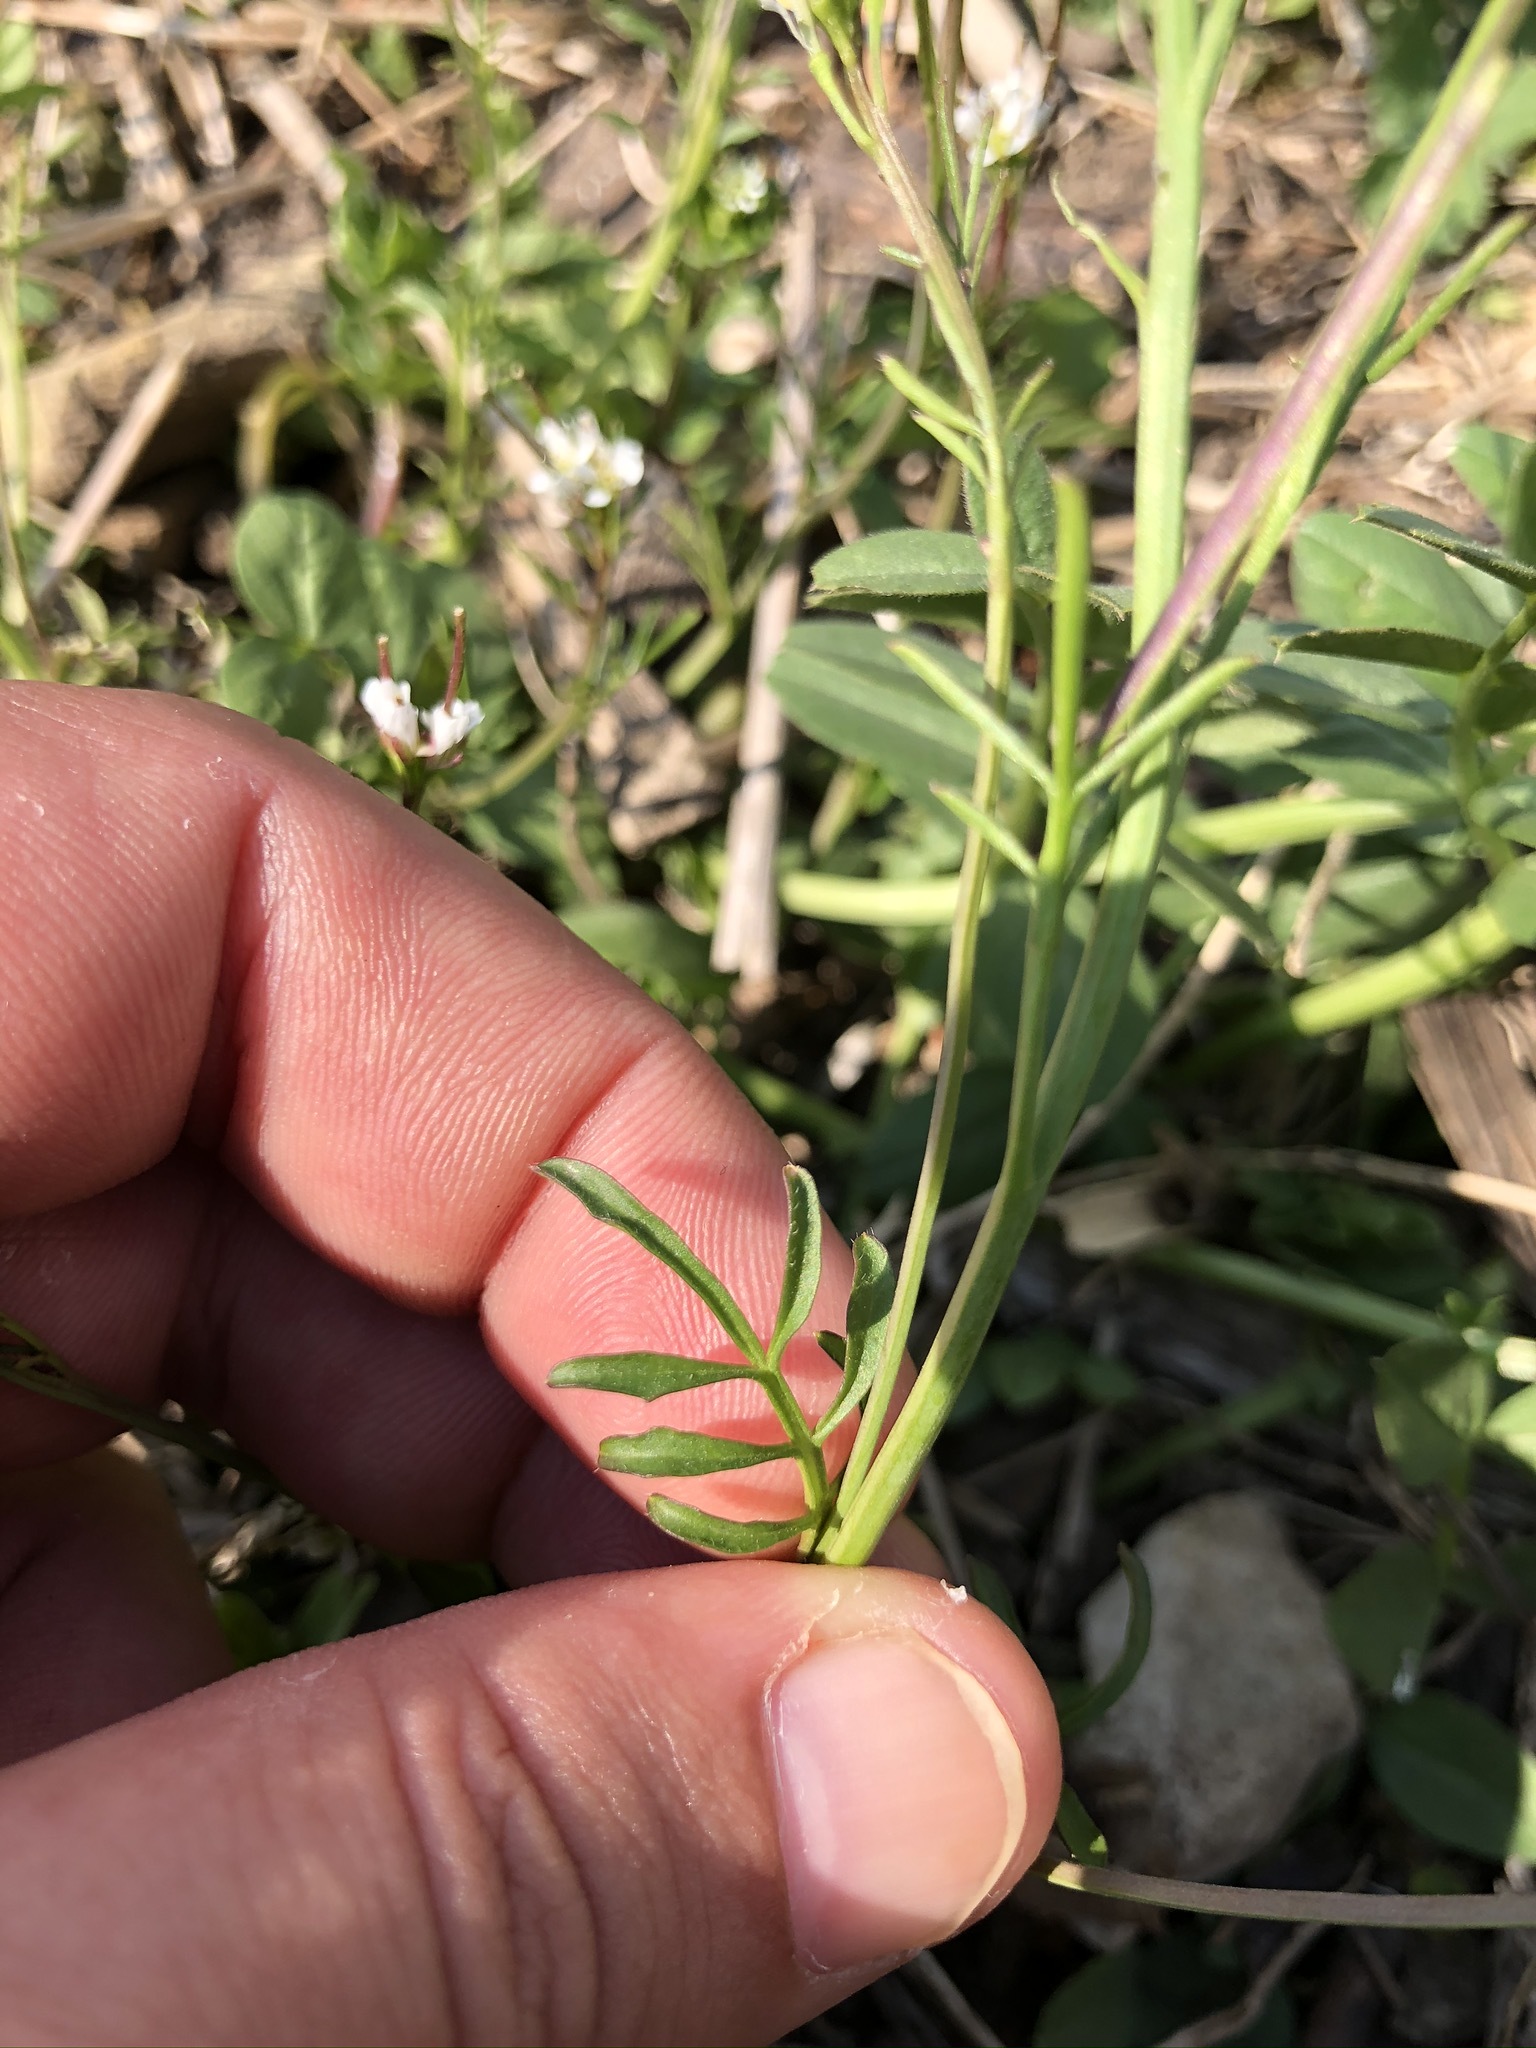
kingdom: Plantae
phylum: Tracheophyta
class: Magnoliopsida
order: Brassicales
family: Brassicaceae
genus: Cardamine
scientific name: Cardamine hirsuta
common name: Hairy bittercress
